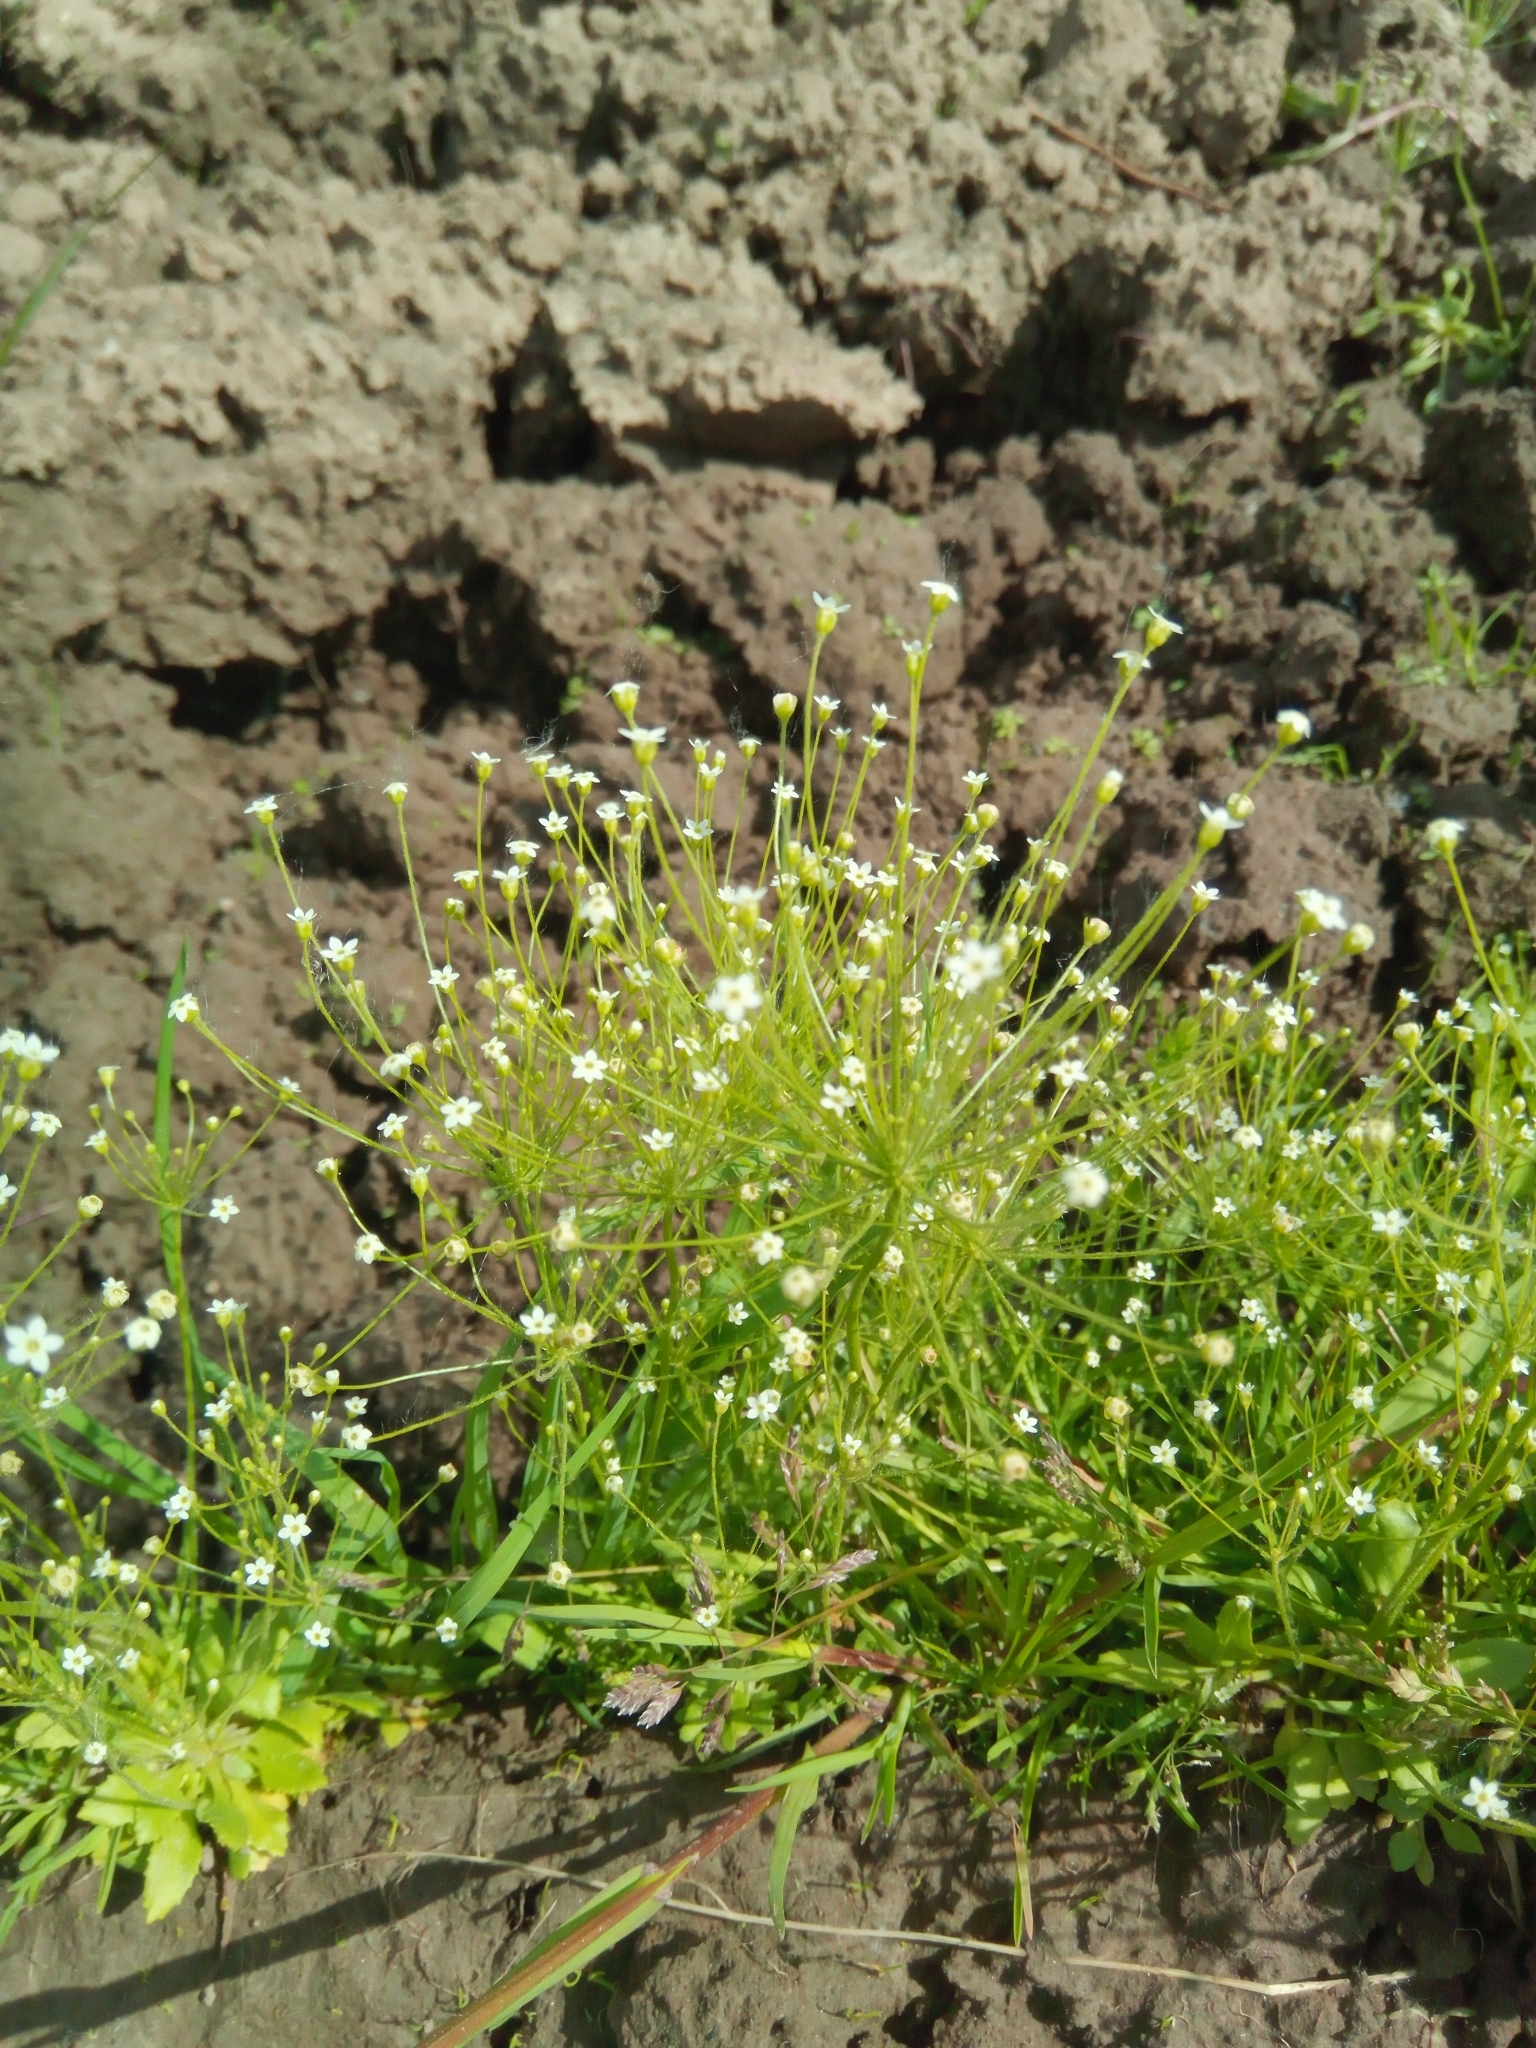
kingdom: Plantae
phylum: Tracheophyta
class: Magnoliopsida
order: Ericales
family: Primulaceae
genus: Androsace
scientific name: Androsace filiformis
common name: Filiform rock jasmine
